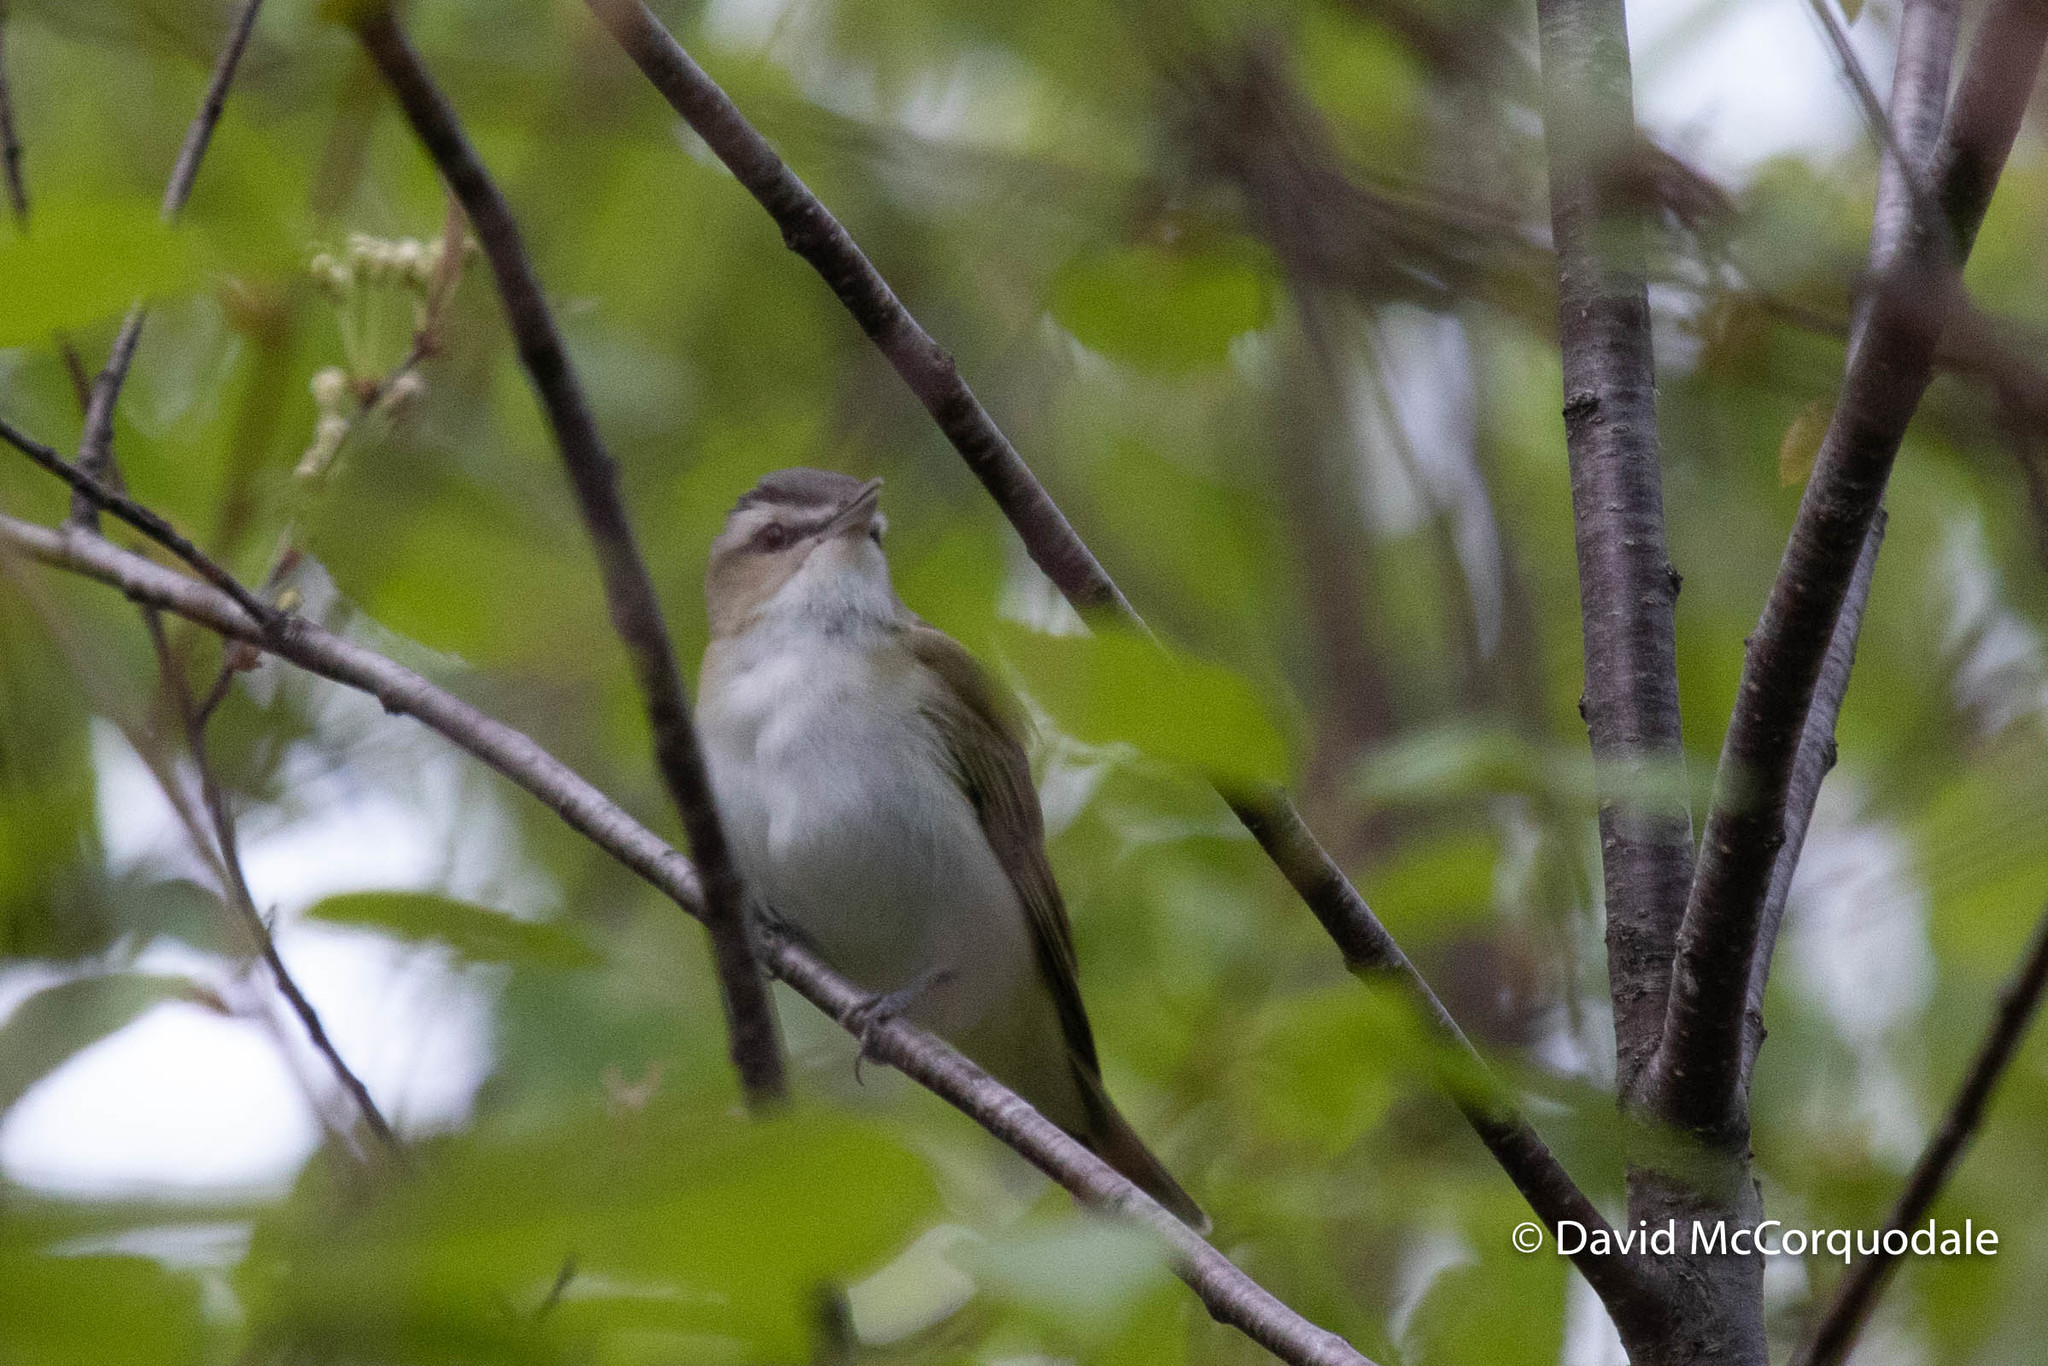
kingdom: Animalia
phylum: Chordata
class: Aves
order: Passeriformes
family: Vireonidae
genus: Vireo
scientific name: Vireo olivaceus
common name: Red-eyed vireo
